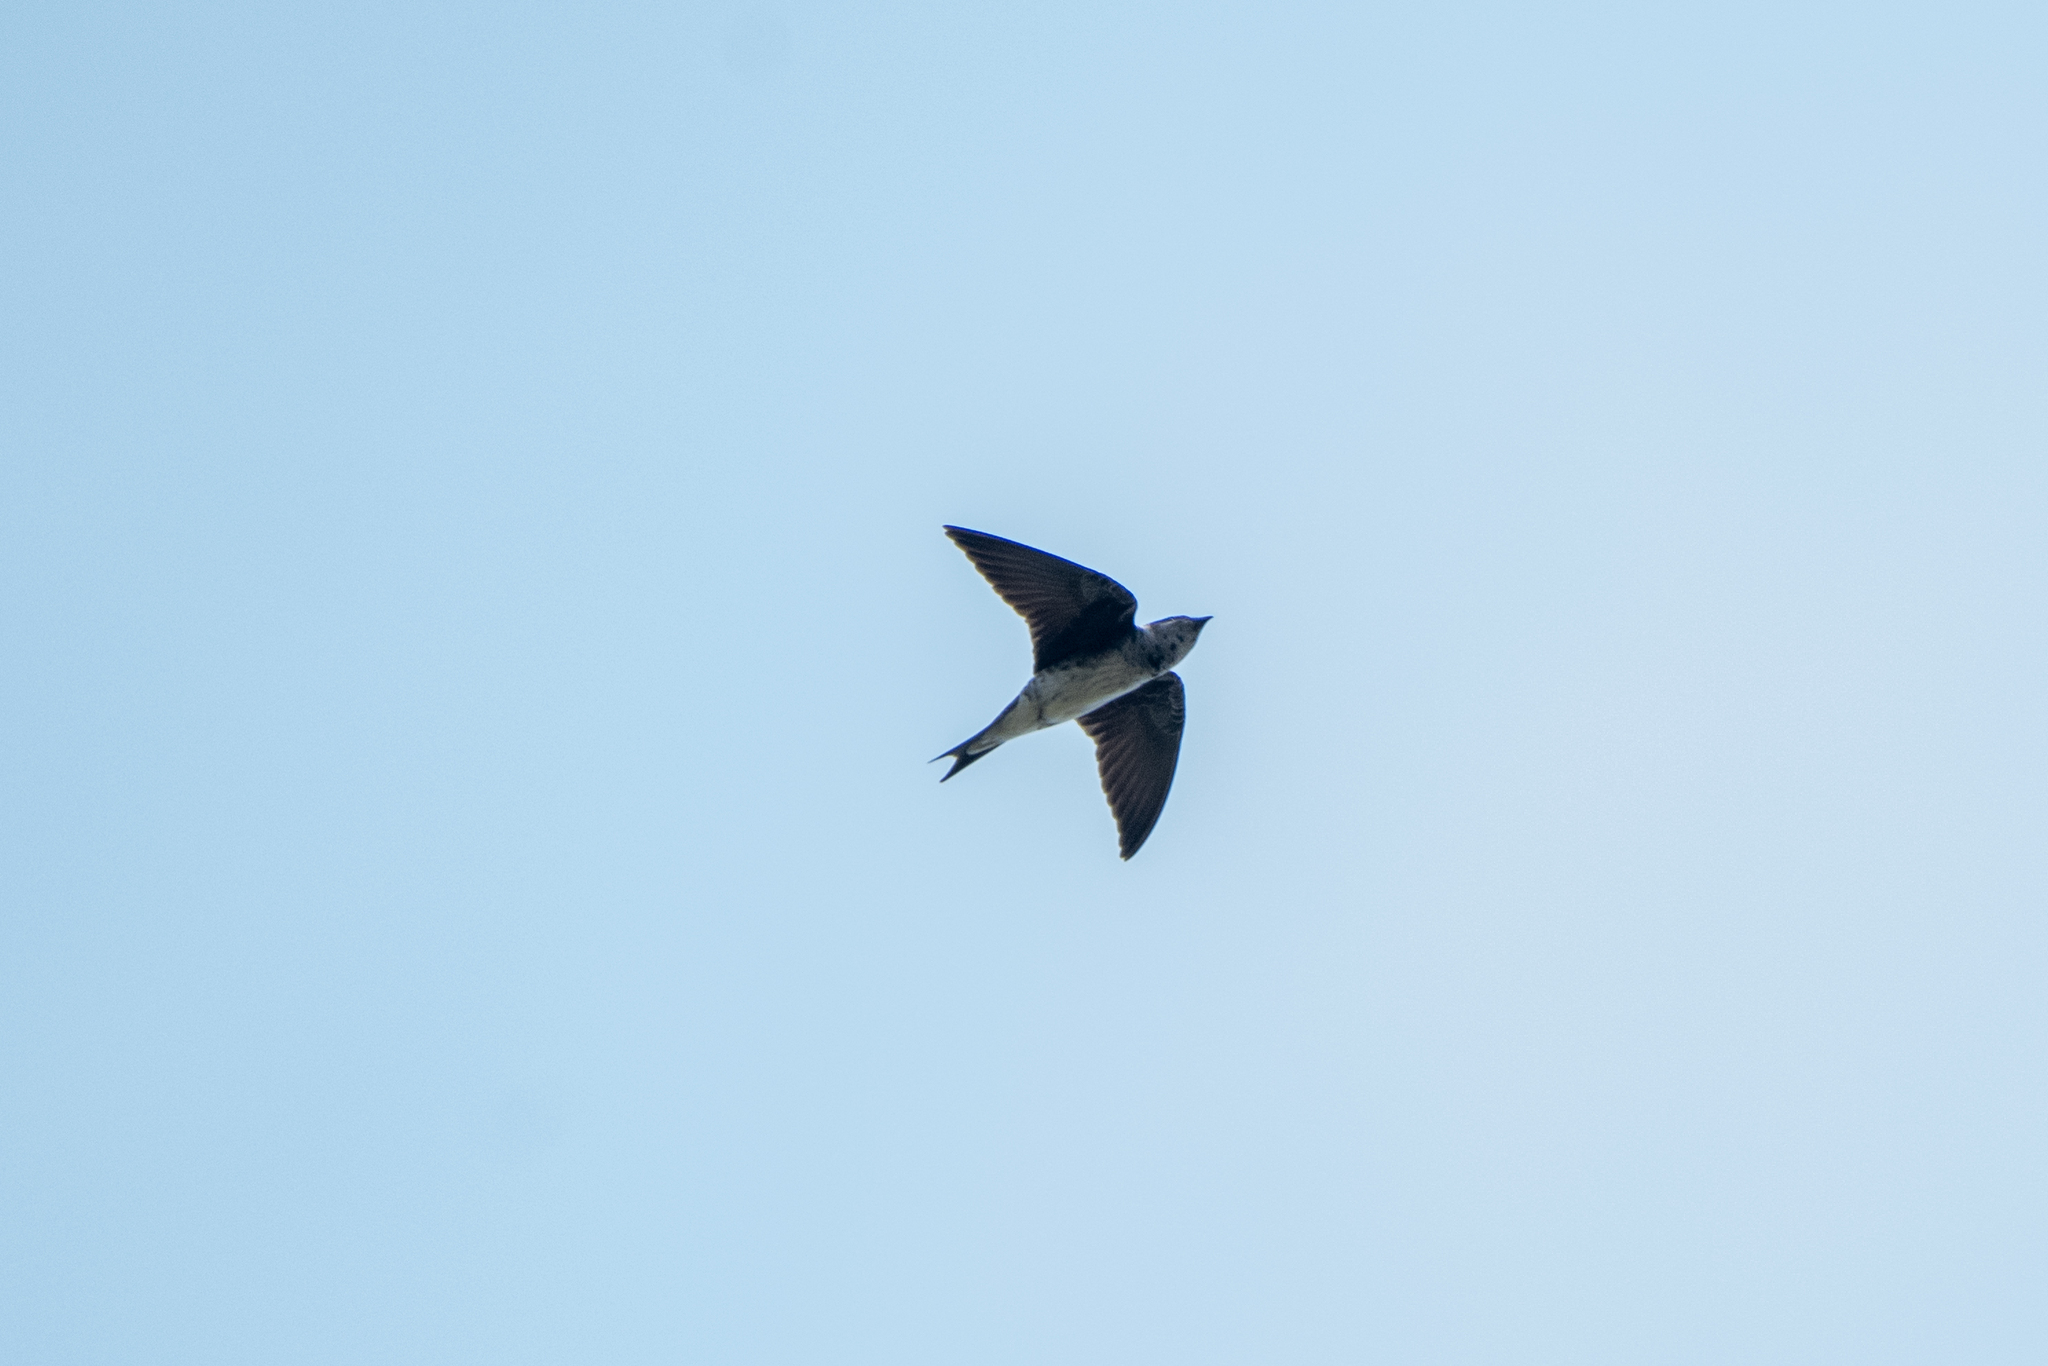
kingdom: Animalia
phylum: Chordata
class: Aves
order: Passeriformes
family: Hirundinidae
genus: Progne
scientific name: Progne subis
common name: Purple martin
